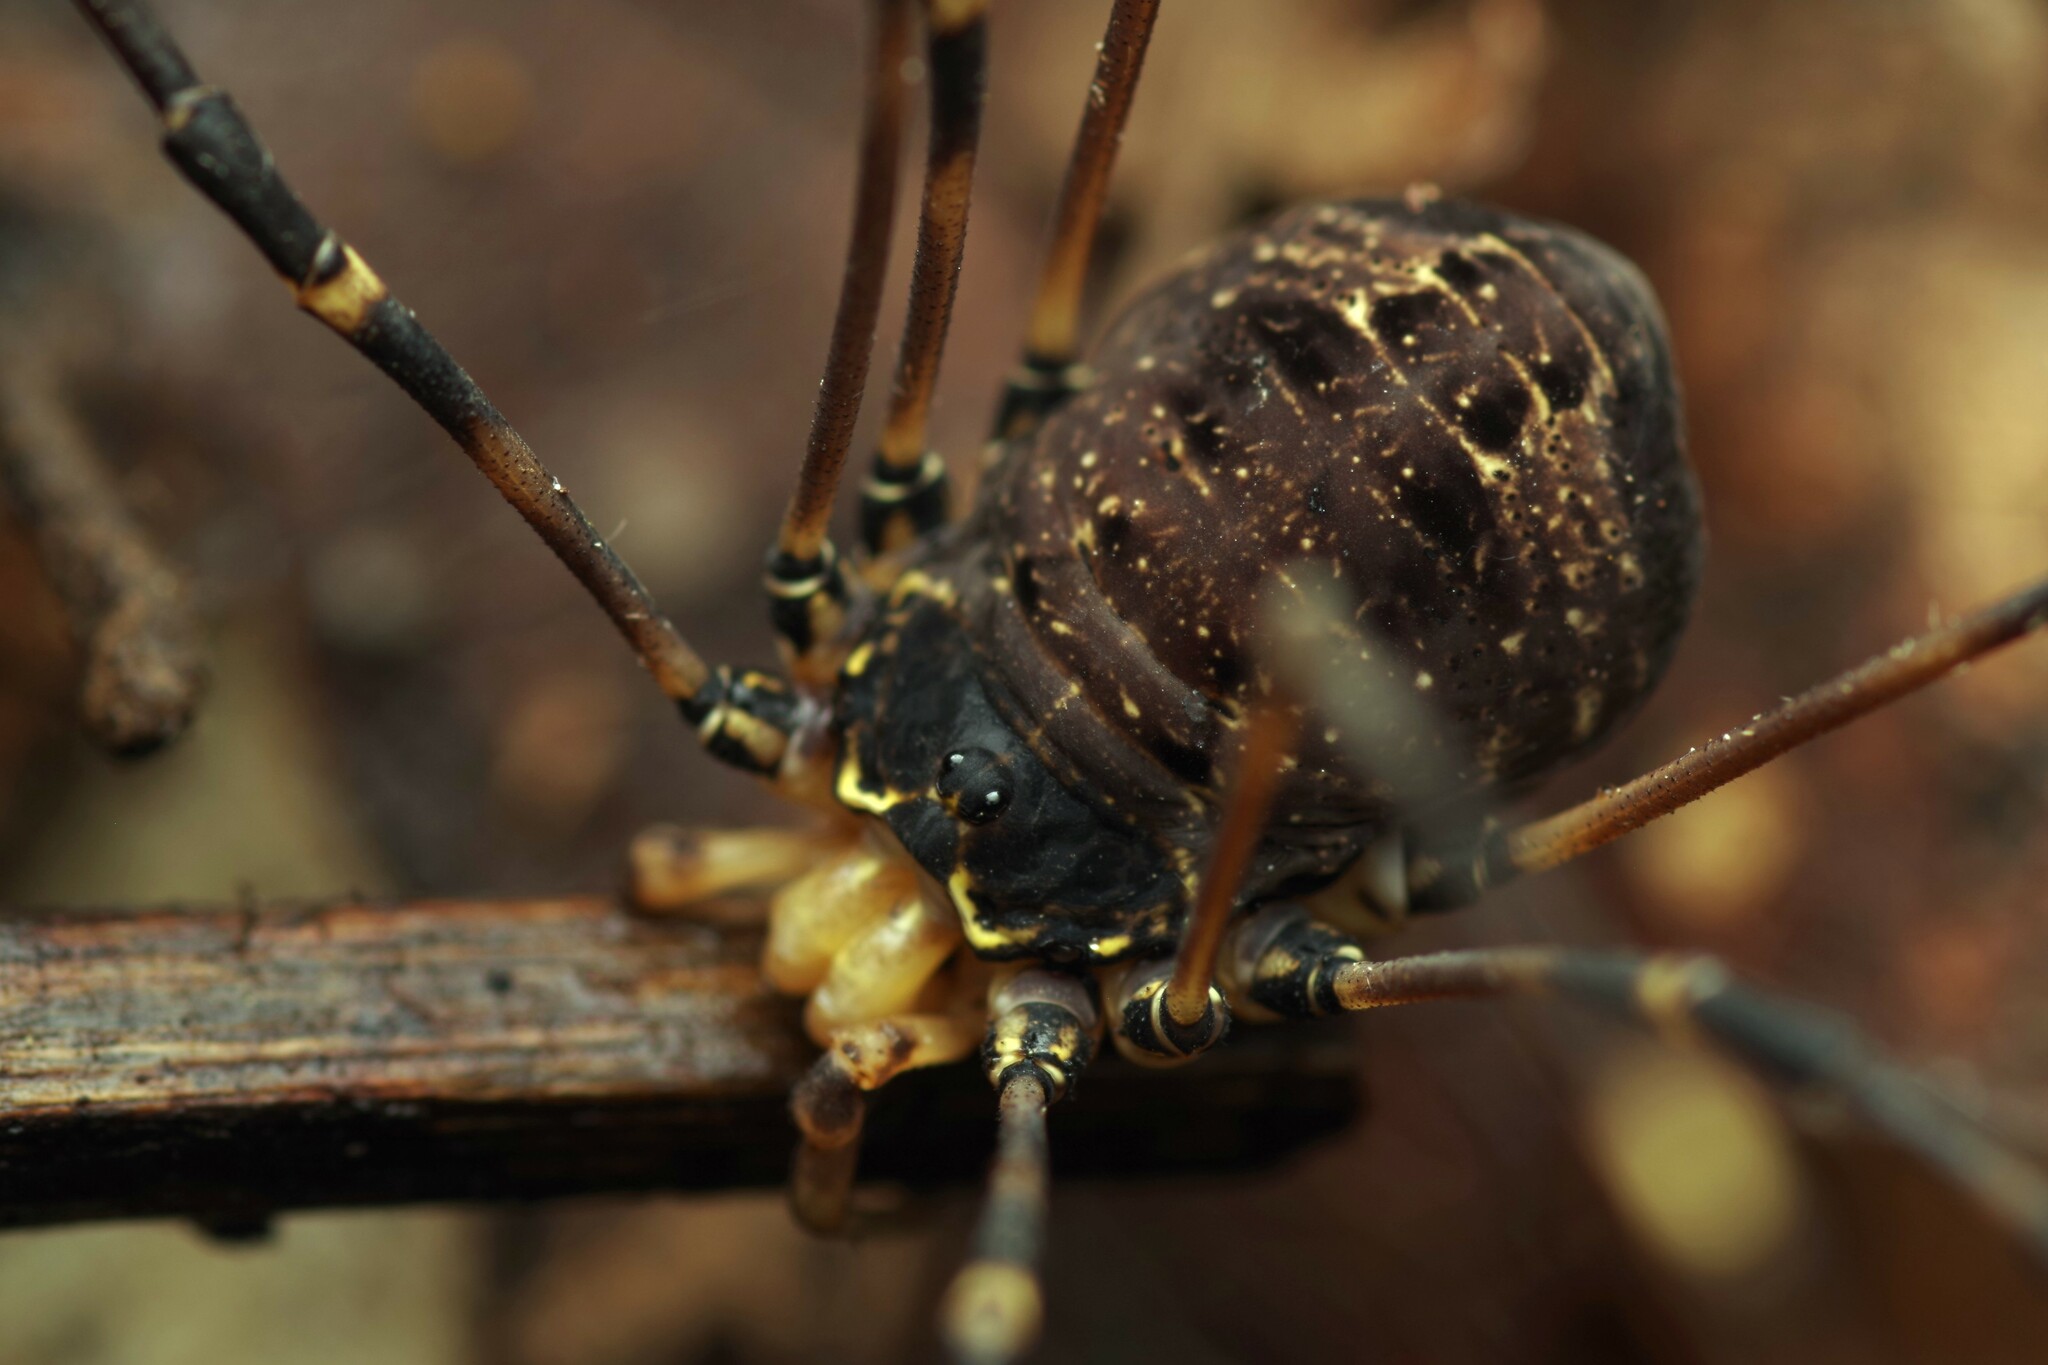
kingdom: Animalia
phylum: Arthropoda
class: Arachnida
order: Opiliones
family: Sclerosomatidae
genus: Gyas
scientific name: Gyas titanus
